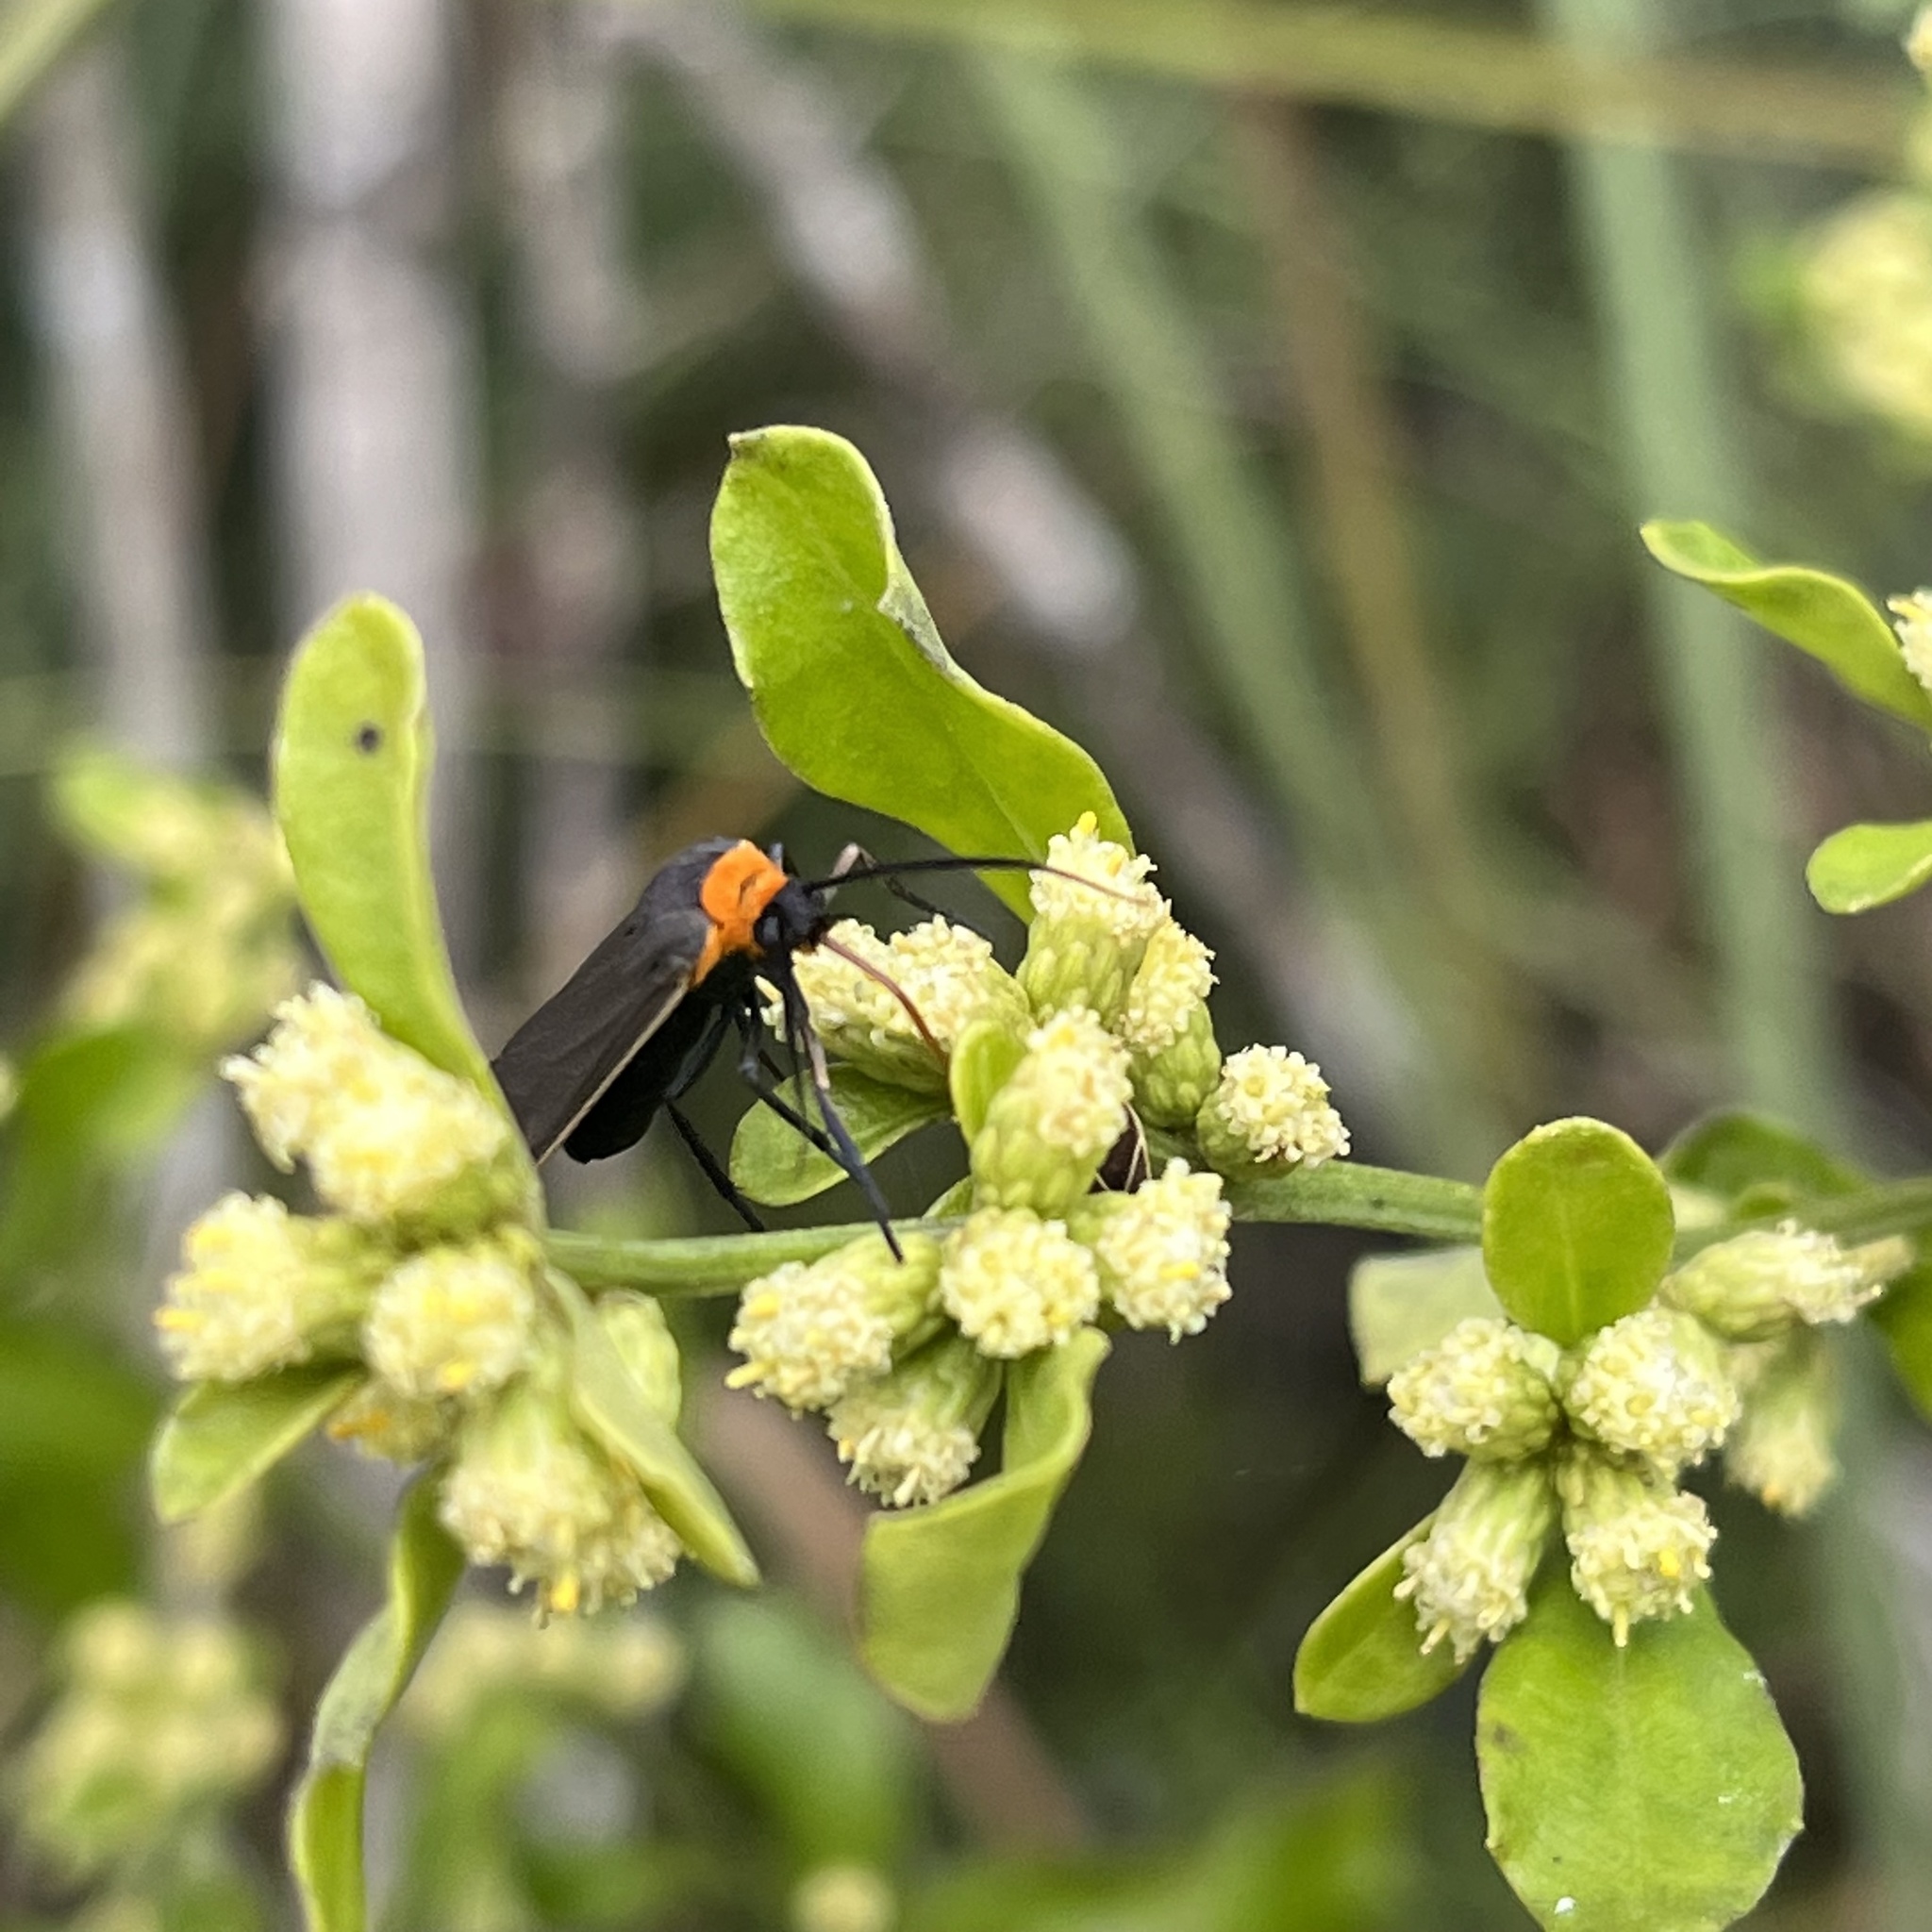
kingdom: Animalia
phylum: Arthropoda
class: Insecta
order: Lepidoptera
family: Erebidae
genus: Cisseps
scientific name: Cisseps fulvicollis
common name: Yellow-collared scape moth
